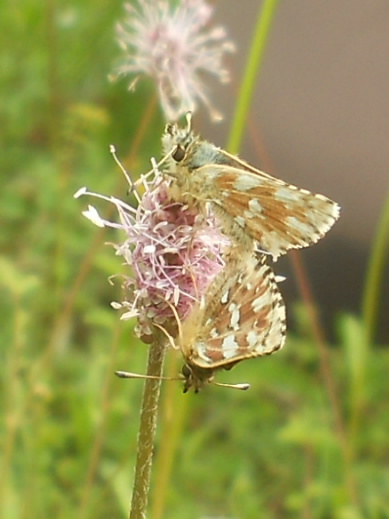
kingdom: Animalia
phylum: Arthropoda
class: Insecta
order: Lepidoptera
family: Hesperiidae
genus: Spialia
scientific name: Spialia sertorius
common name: Red underwing skipper
